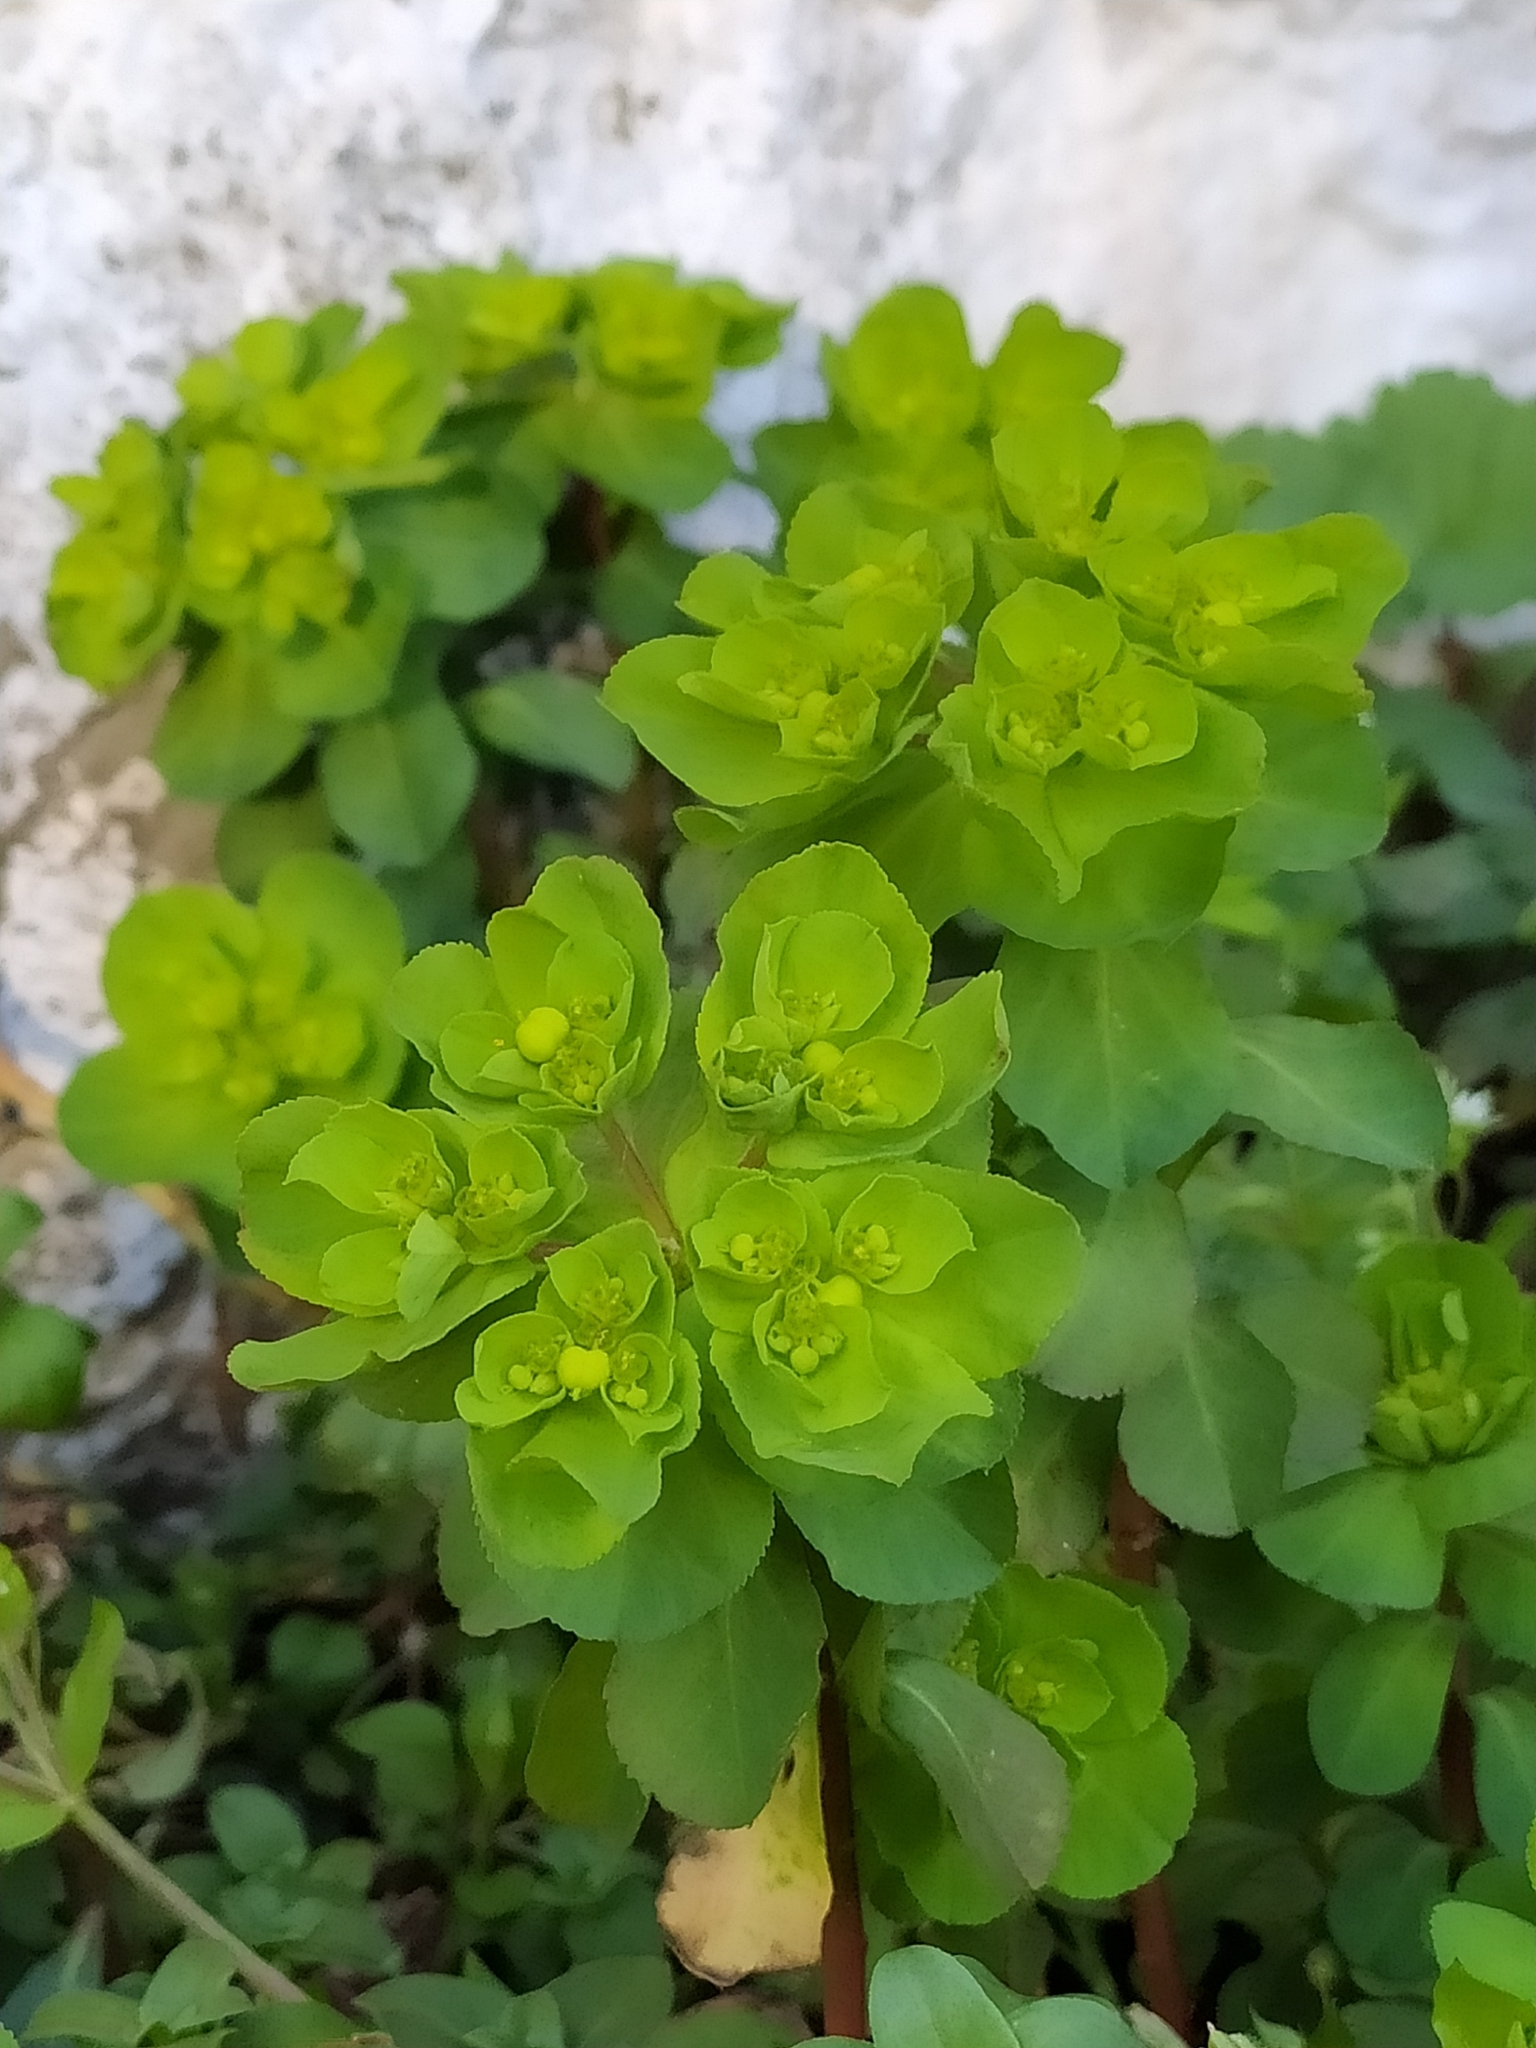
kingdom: Plantae
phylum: Tracheophyta
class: Magnoliopsida
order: Malpighiales
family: Euphorbiaceae
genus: Euphorbia
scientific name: Euphorbia helioscopia
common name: Sun spurge
